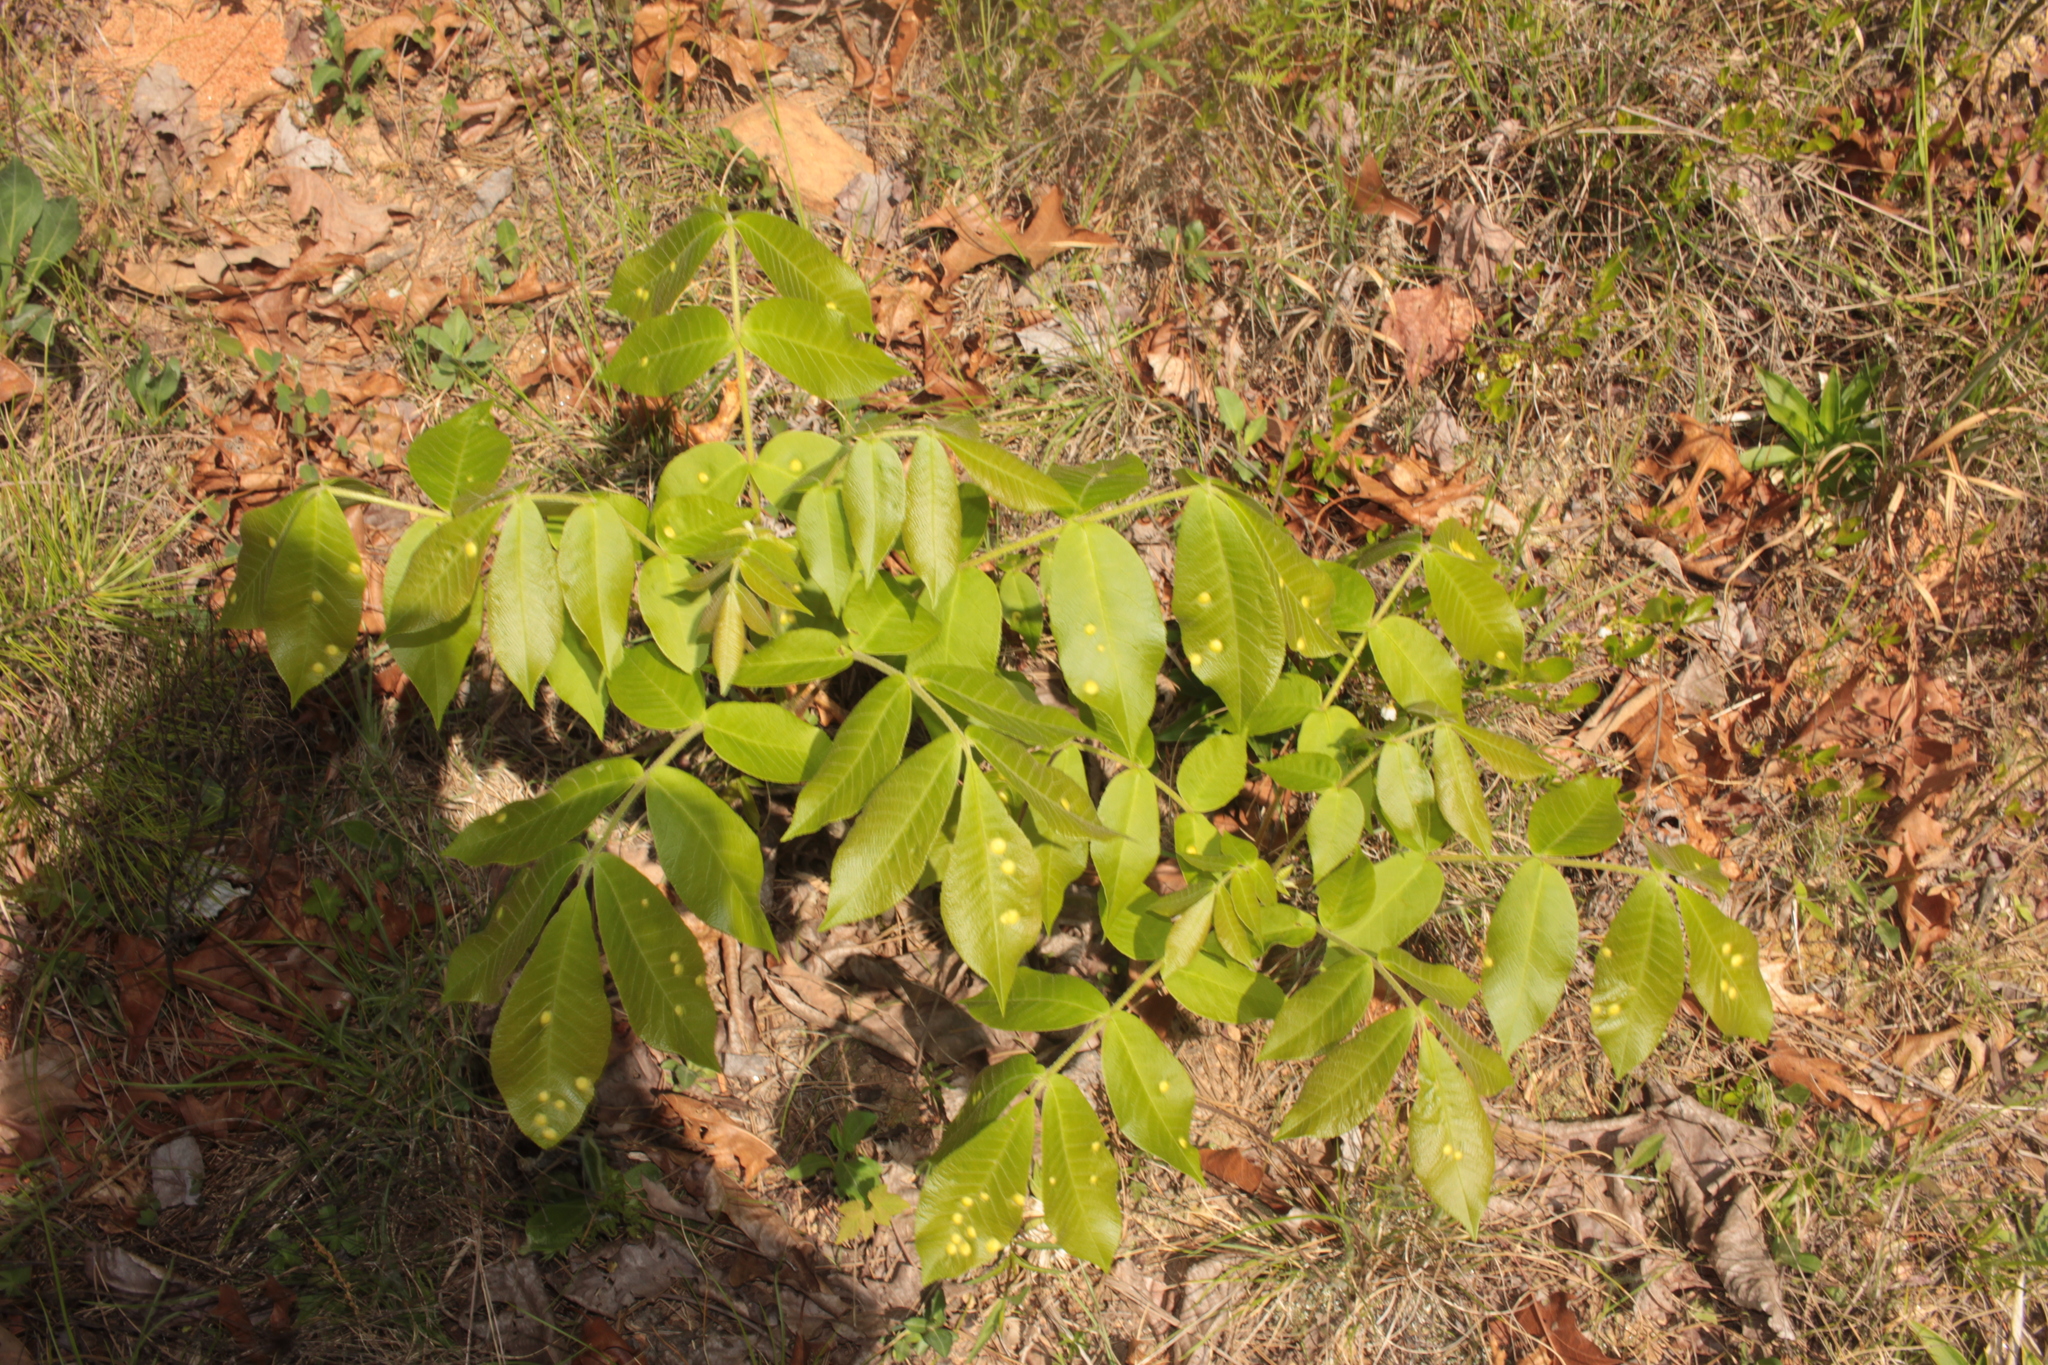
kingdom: Plantae
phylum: Tracheophyta
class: Magnoliopsida
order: Fagales
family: Juglandaceae
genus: Carya
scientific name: Carya alba
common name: Mockernut hickory
